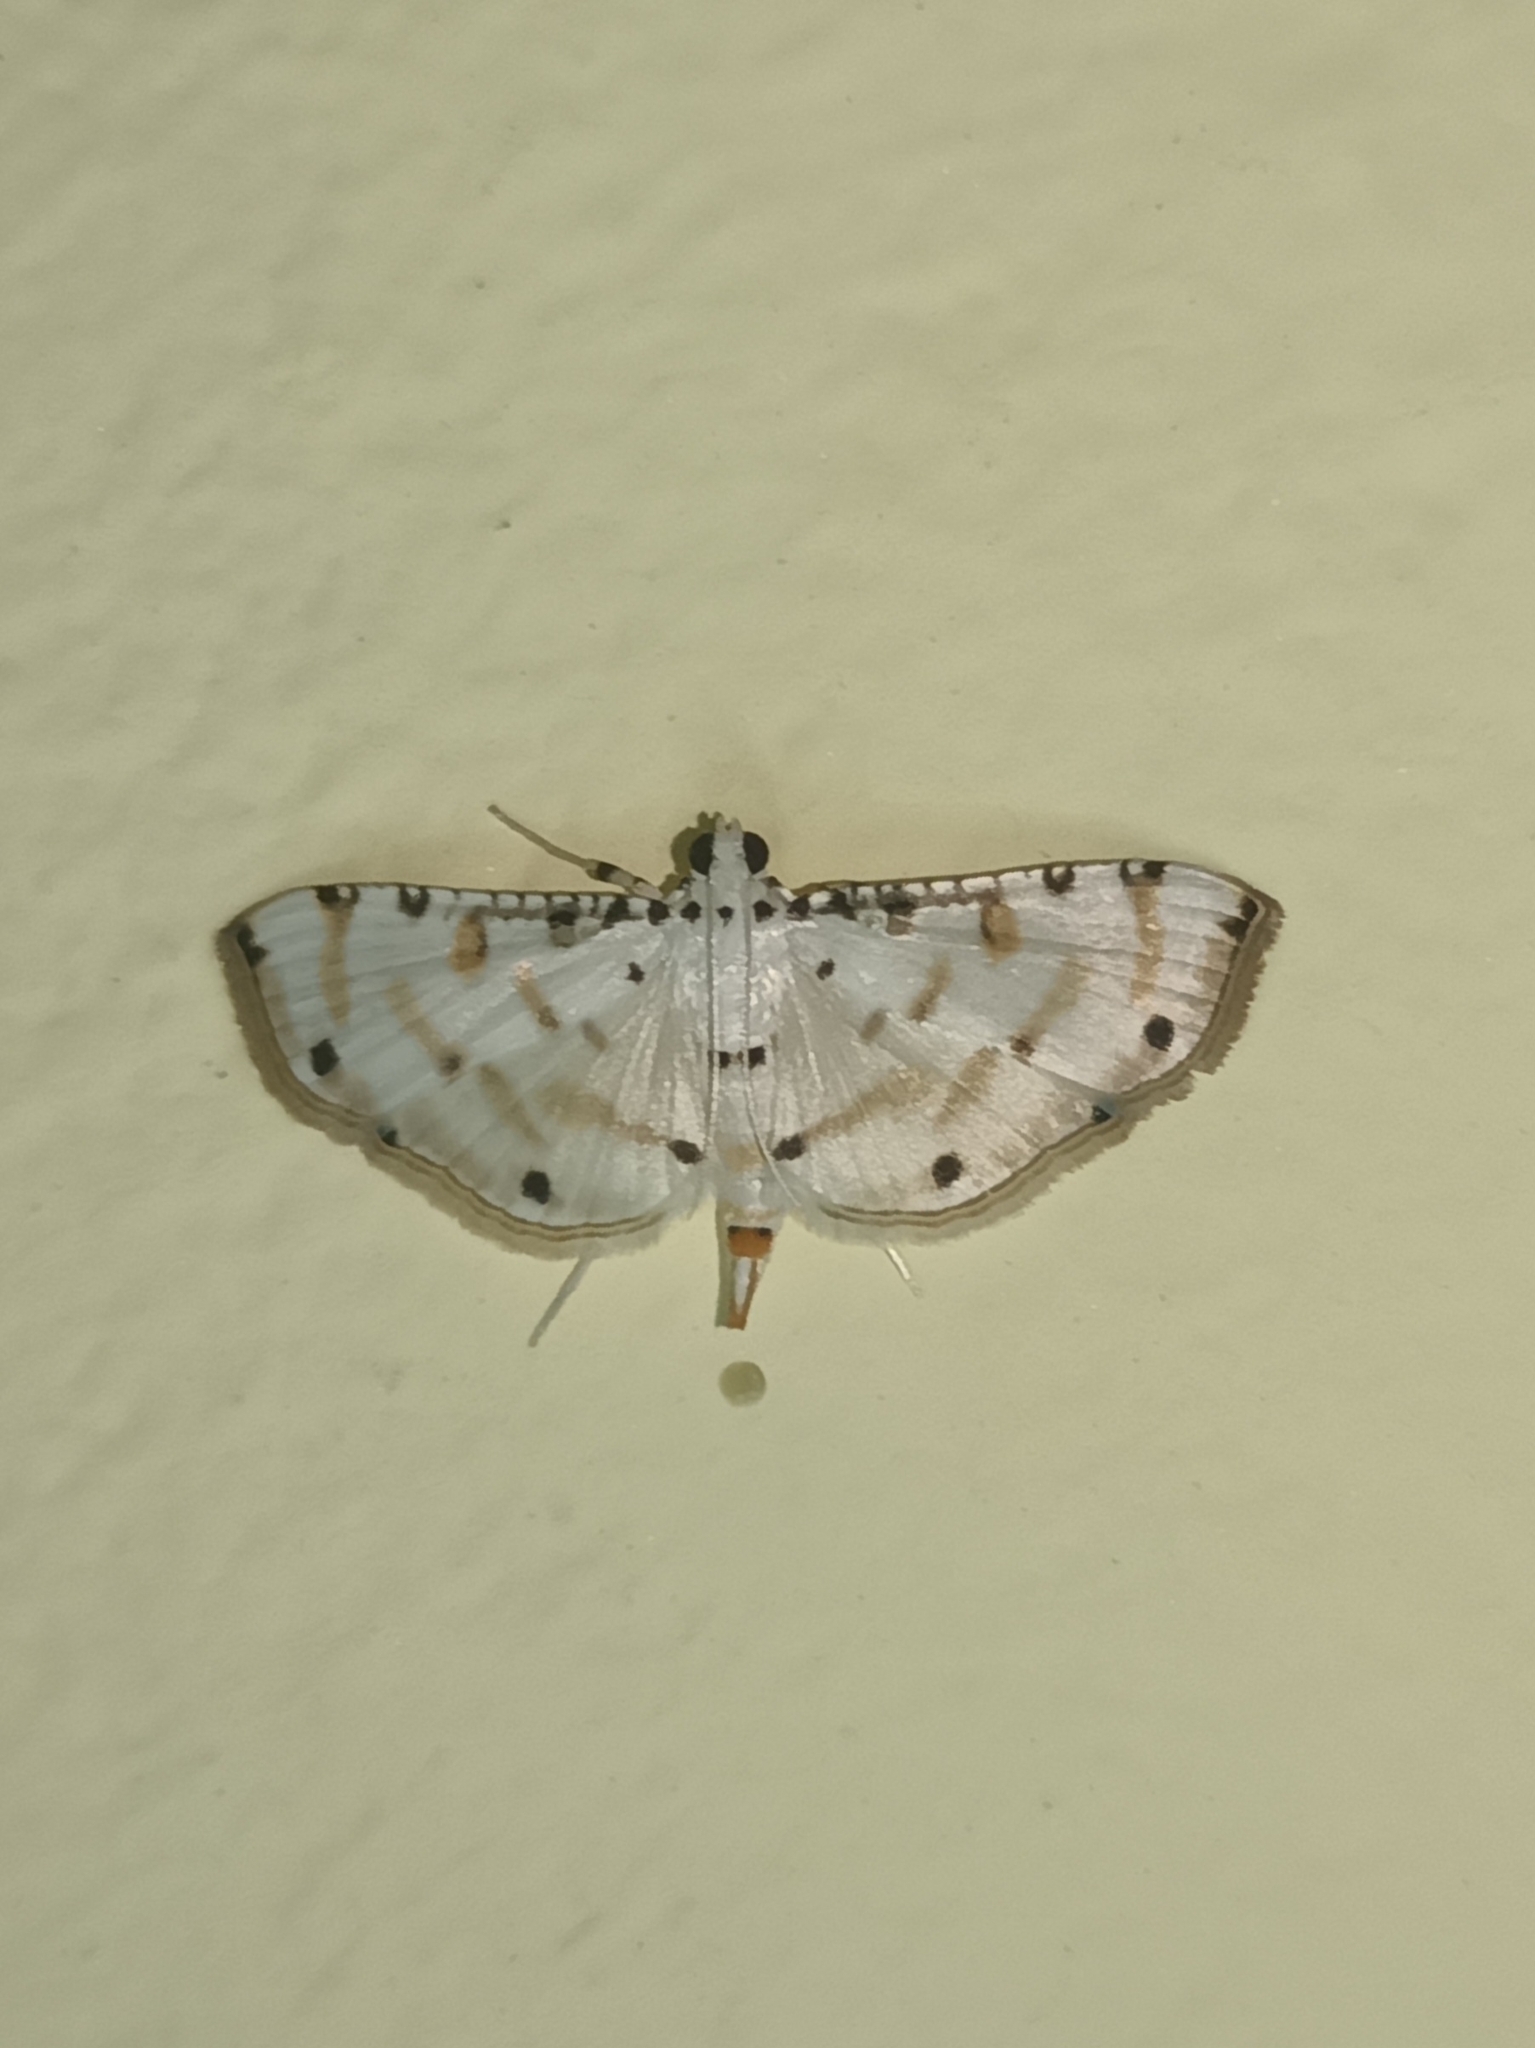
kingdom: Animalia
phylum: Arthropoda
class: Insecta
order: Lepidoptera
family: Crambidae
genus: Pycnarmon
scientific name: Pycnarmon cribrata
